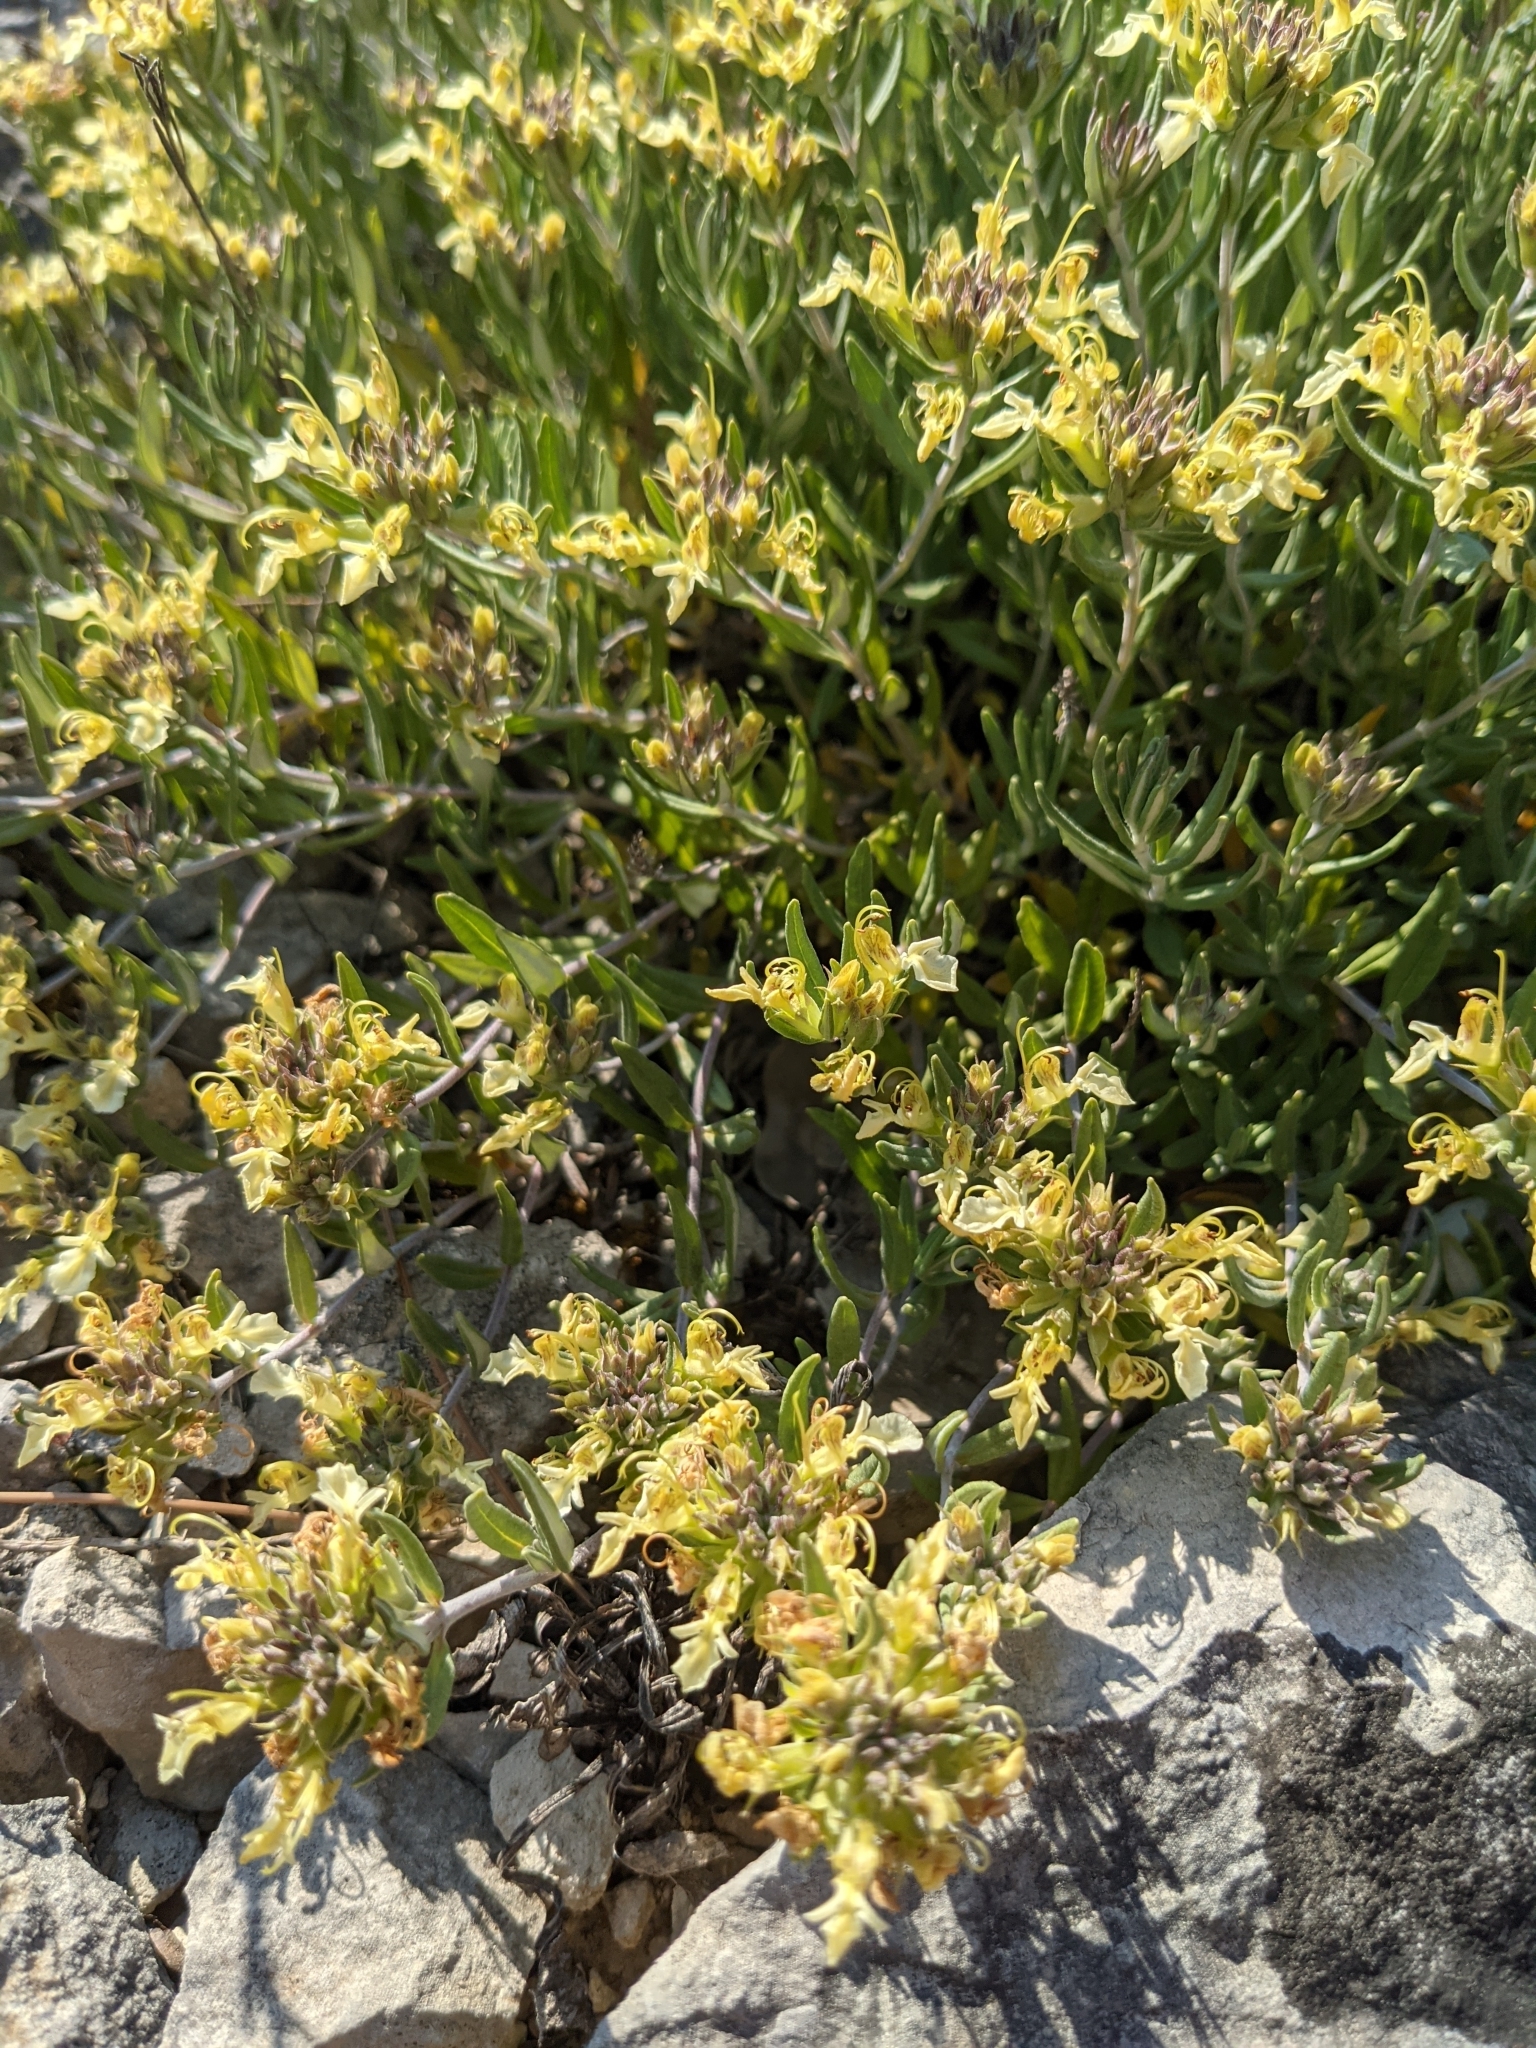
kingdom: Plantae
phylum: Tracheophyta
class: Magnoliopsida
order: Lamiales
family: Lamiaceae
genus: Teucrium
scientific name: Teucrium montanum
